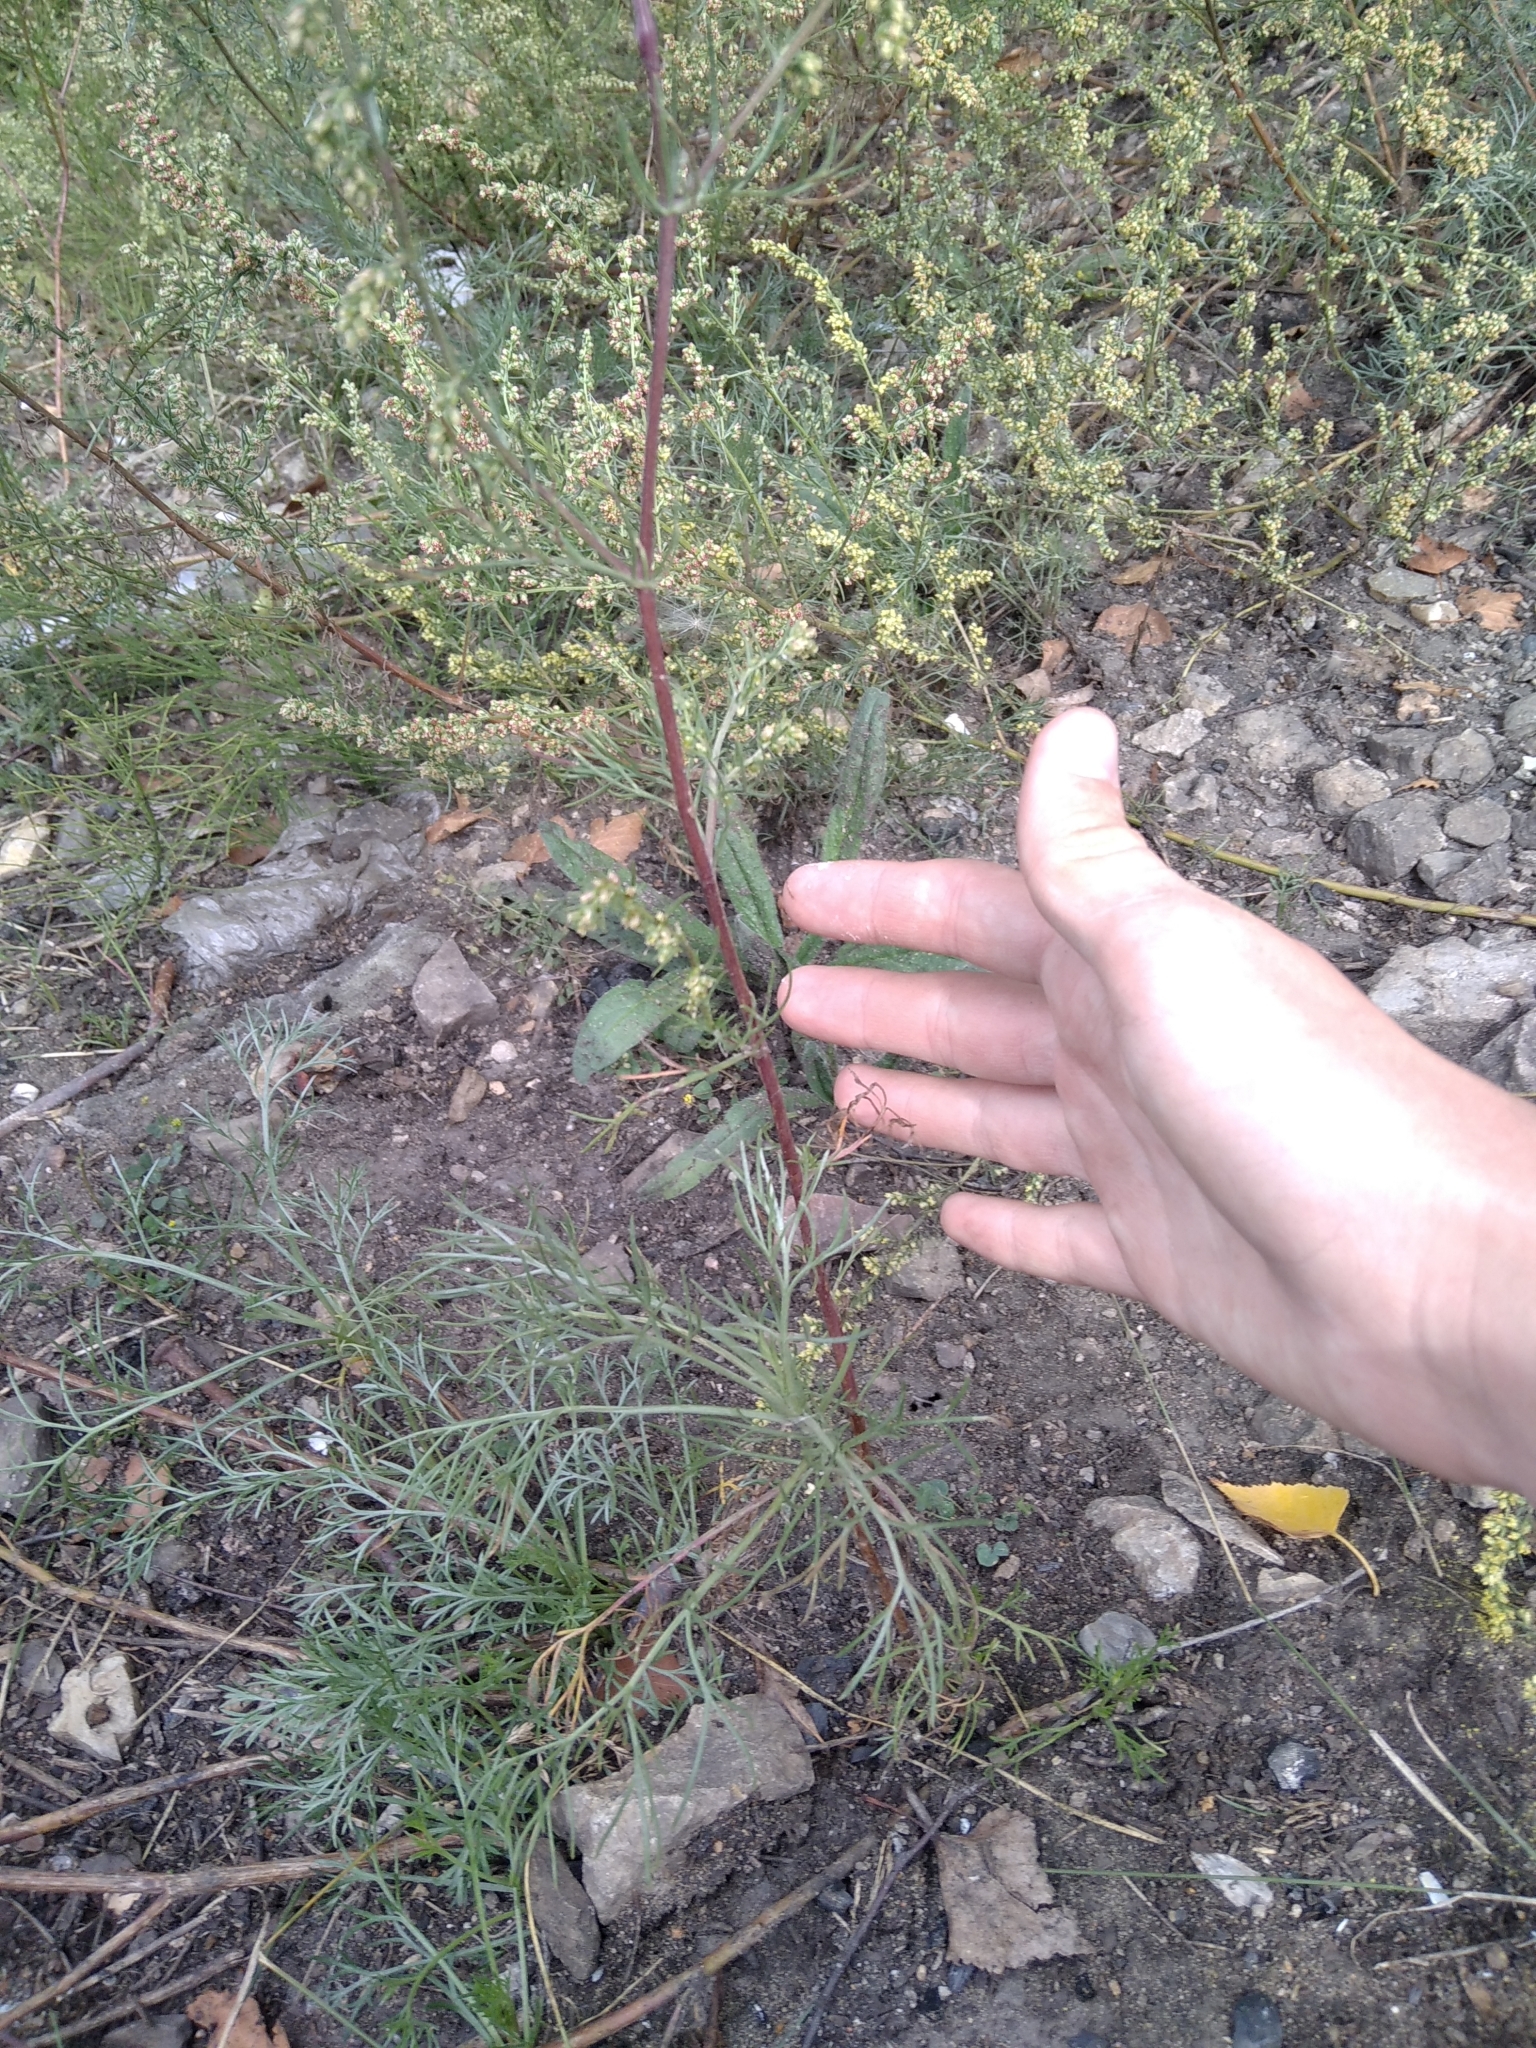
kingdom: Plantae
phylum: Tracheophyta
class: Magnoliopsida
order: Asterales
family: Asteraceae
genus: Artemisia
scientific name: Artemisia campestris
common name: Field wormwood
